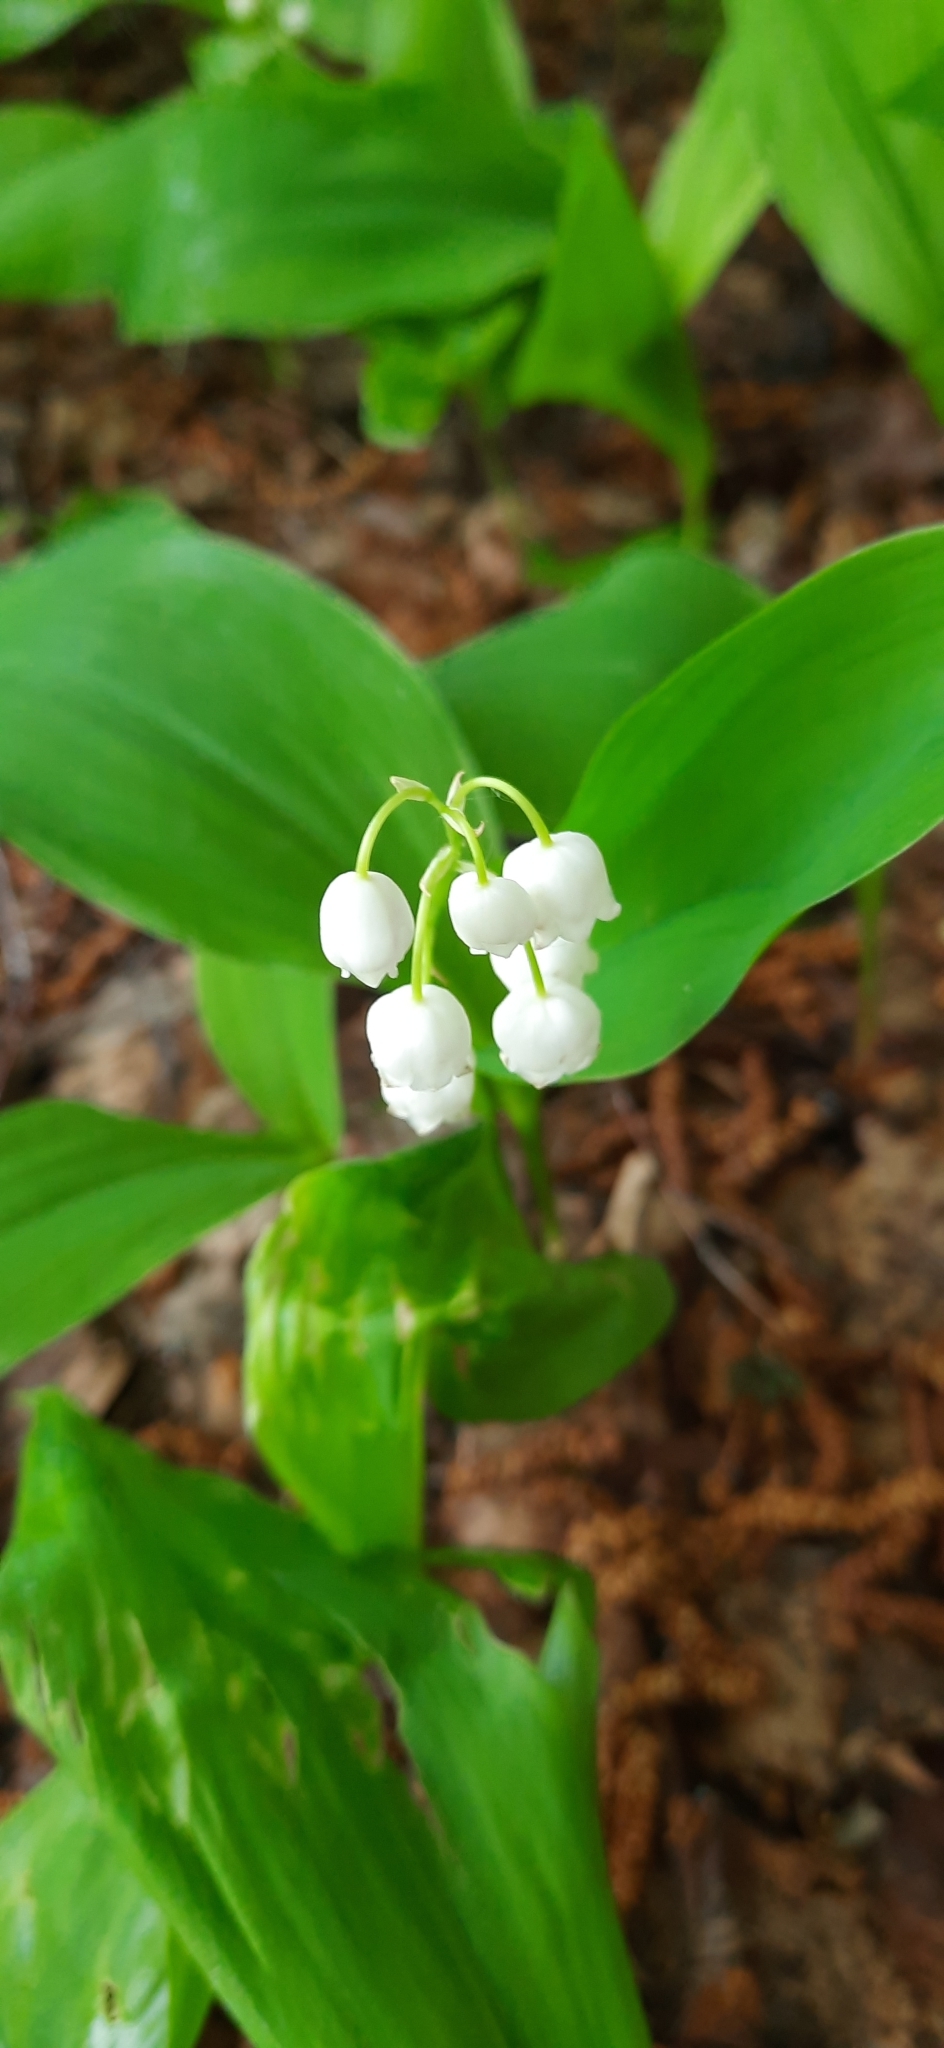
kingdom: Plantae
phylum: Tracheophyta
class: Liliopsida
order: Asparagales
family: Asparagaceae
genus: Convallaria
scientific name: Convallaria majalis
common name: Lily-of-the-valley
